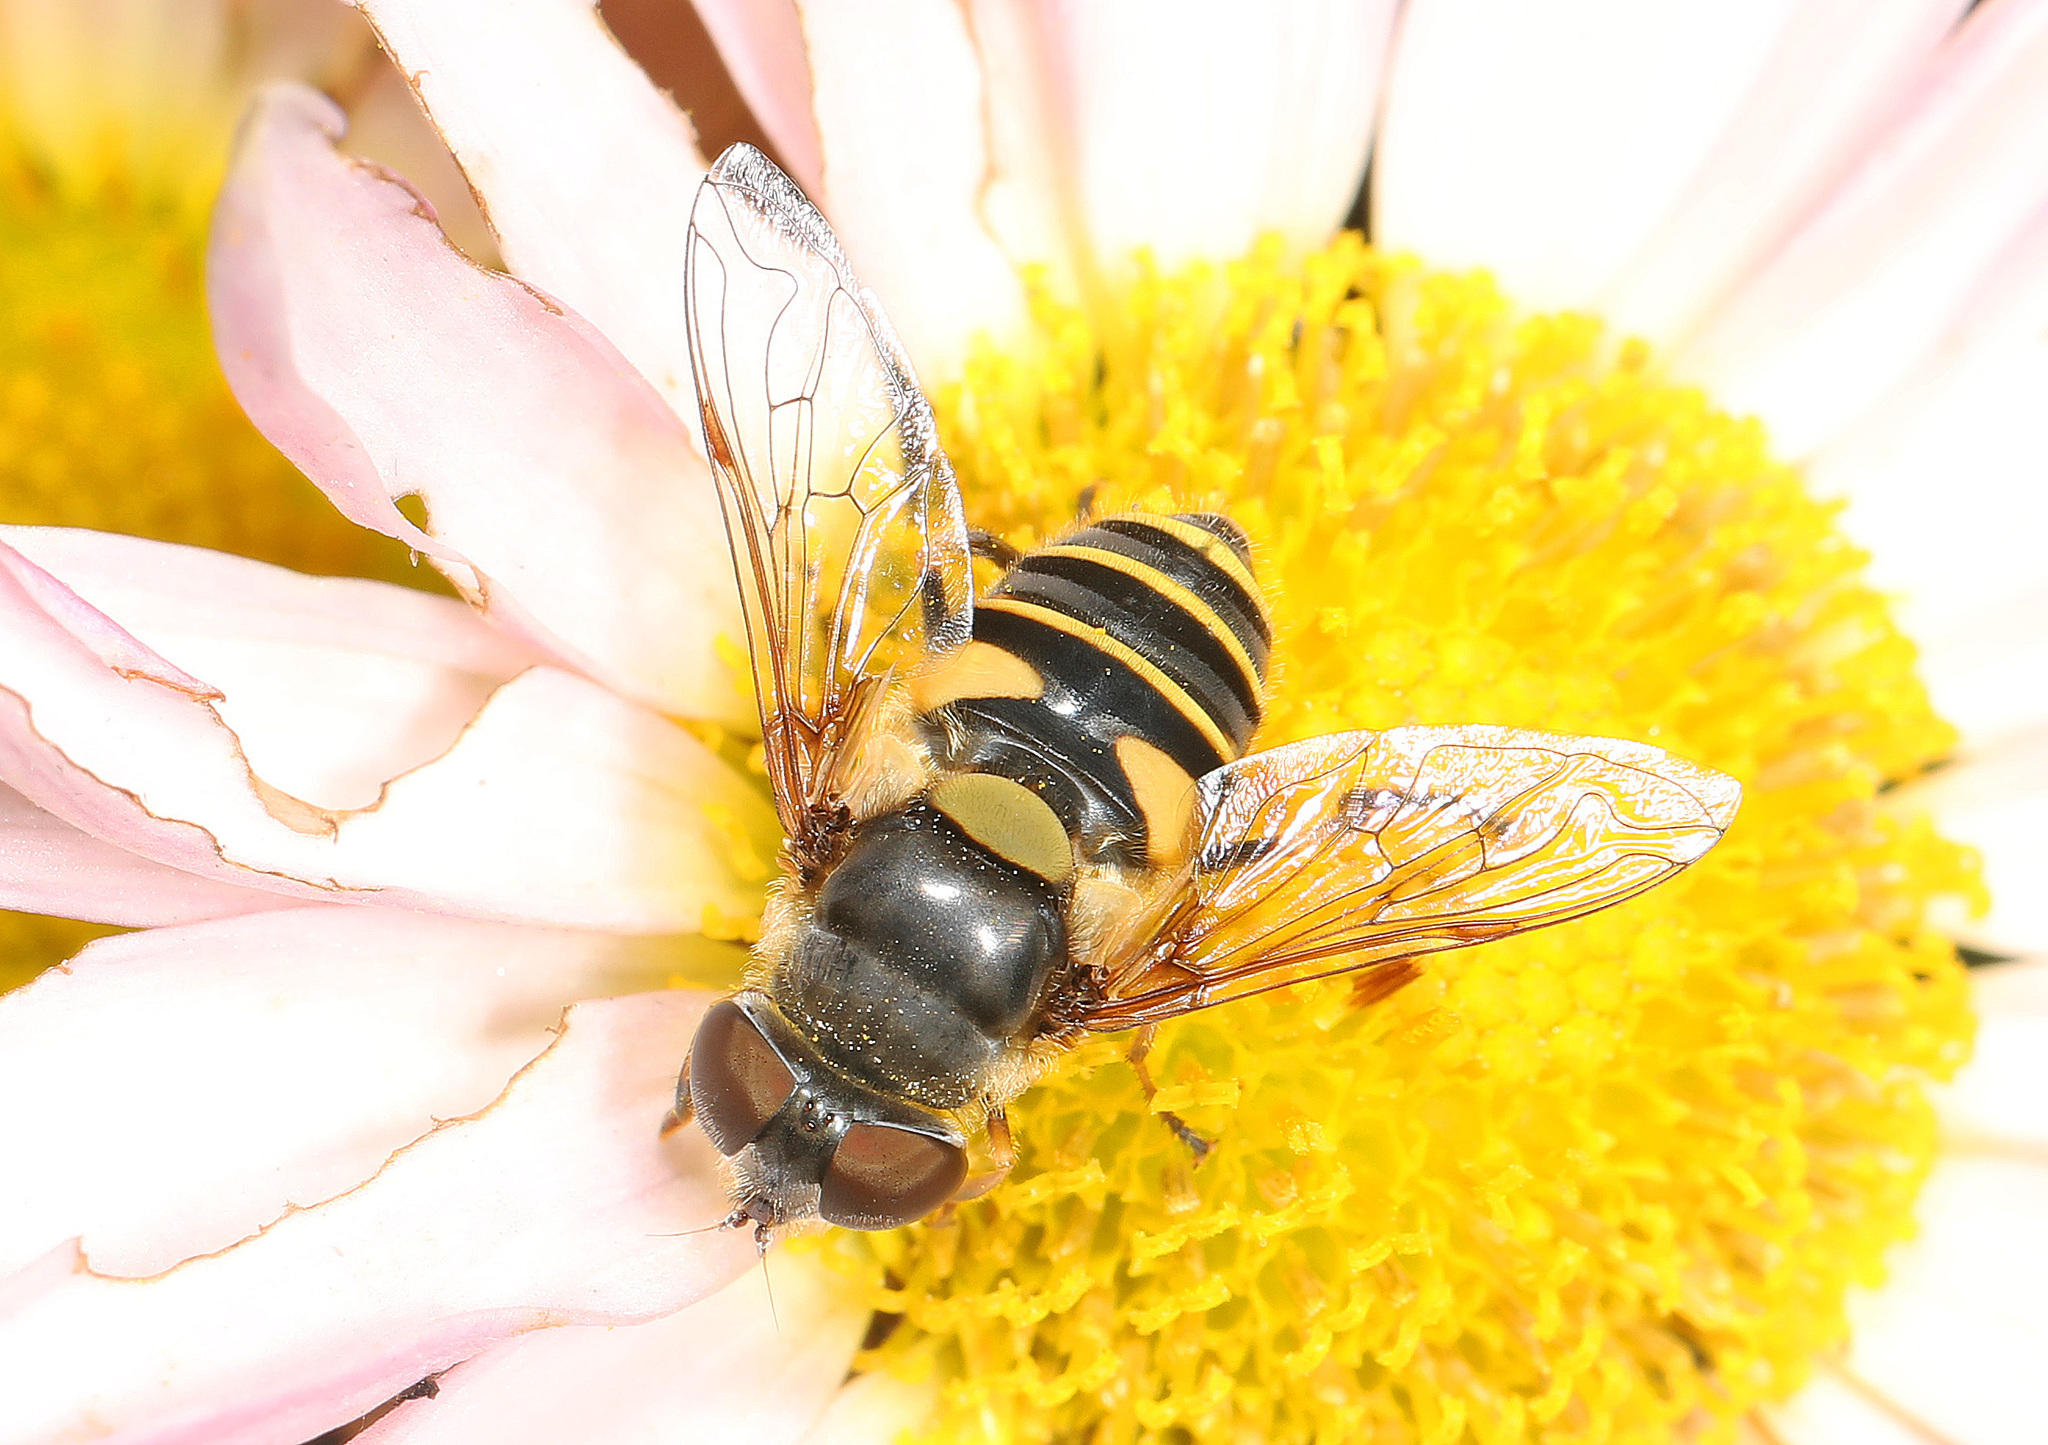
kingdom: Animalia
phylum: Arthropoda
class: Insecta
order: Diptera
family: Syrphidae
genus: Eristalis
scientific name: Eristalis transversa
